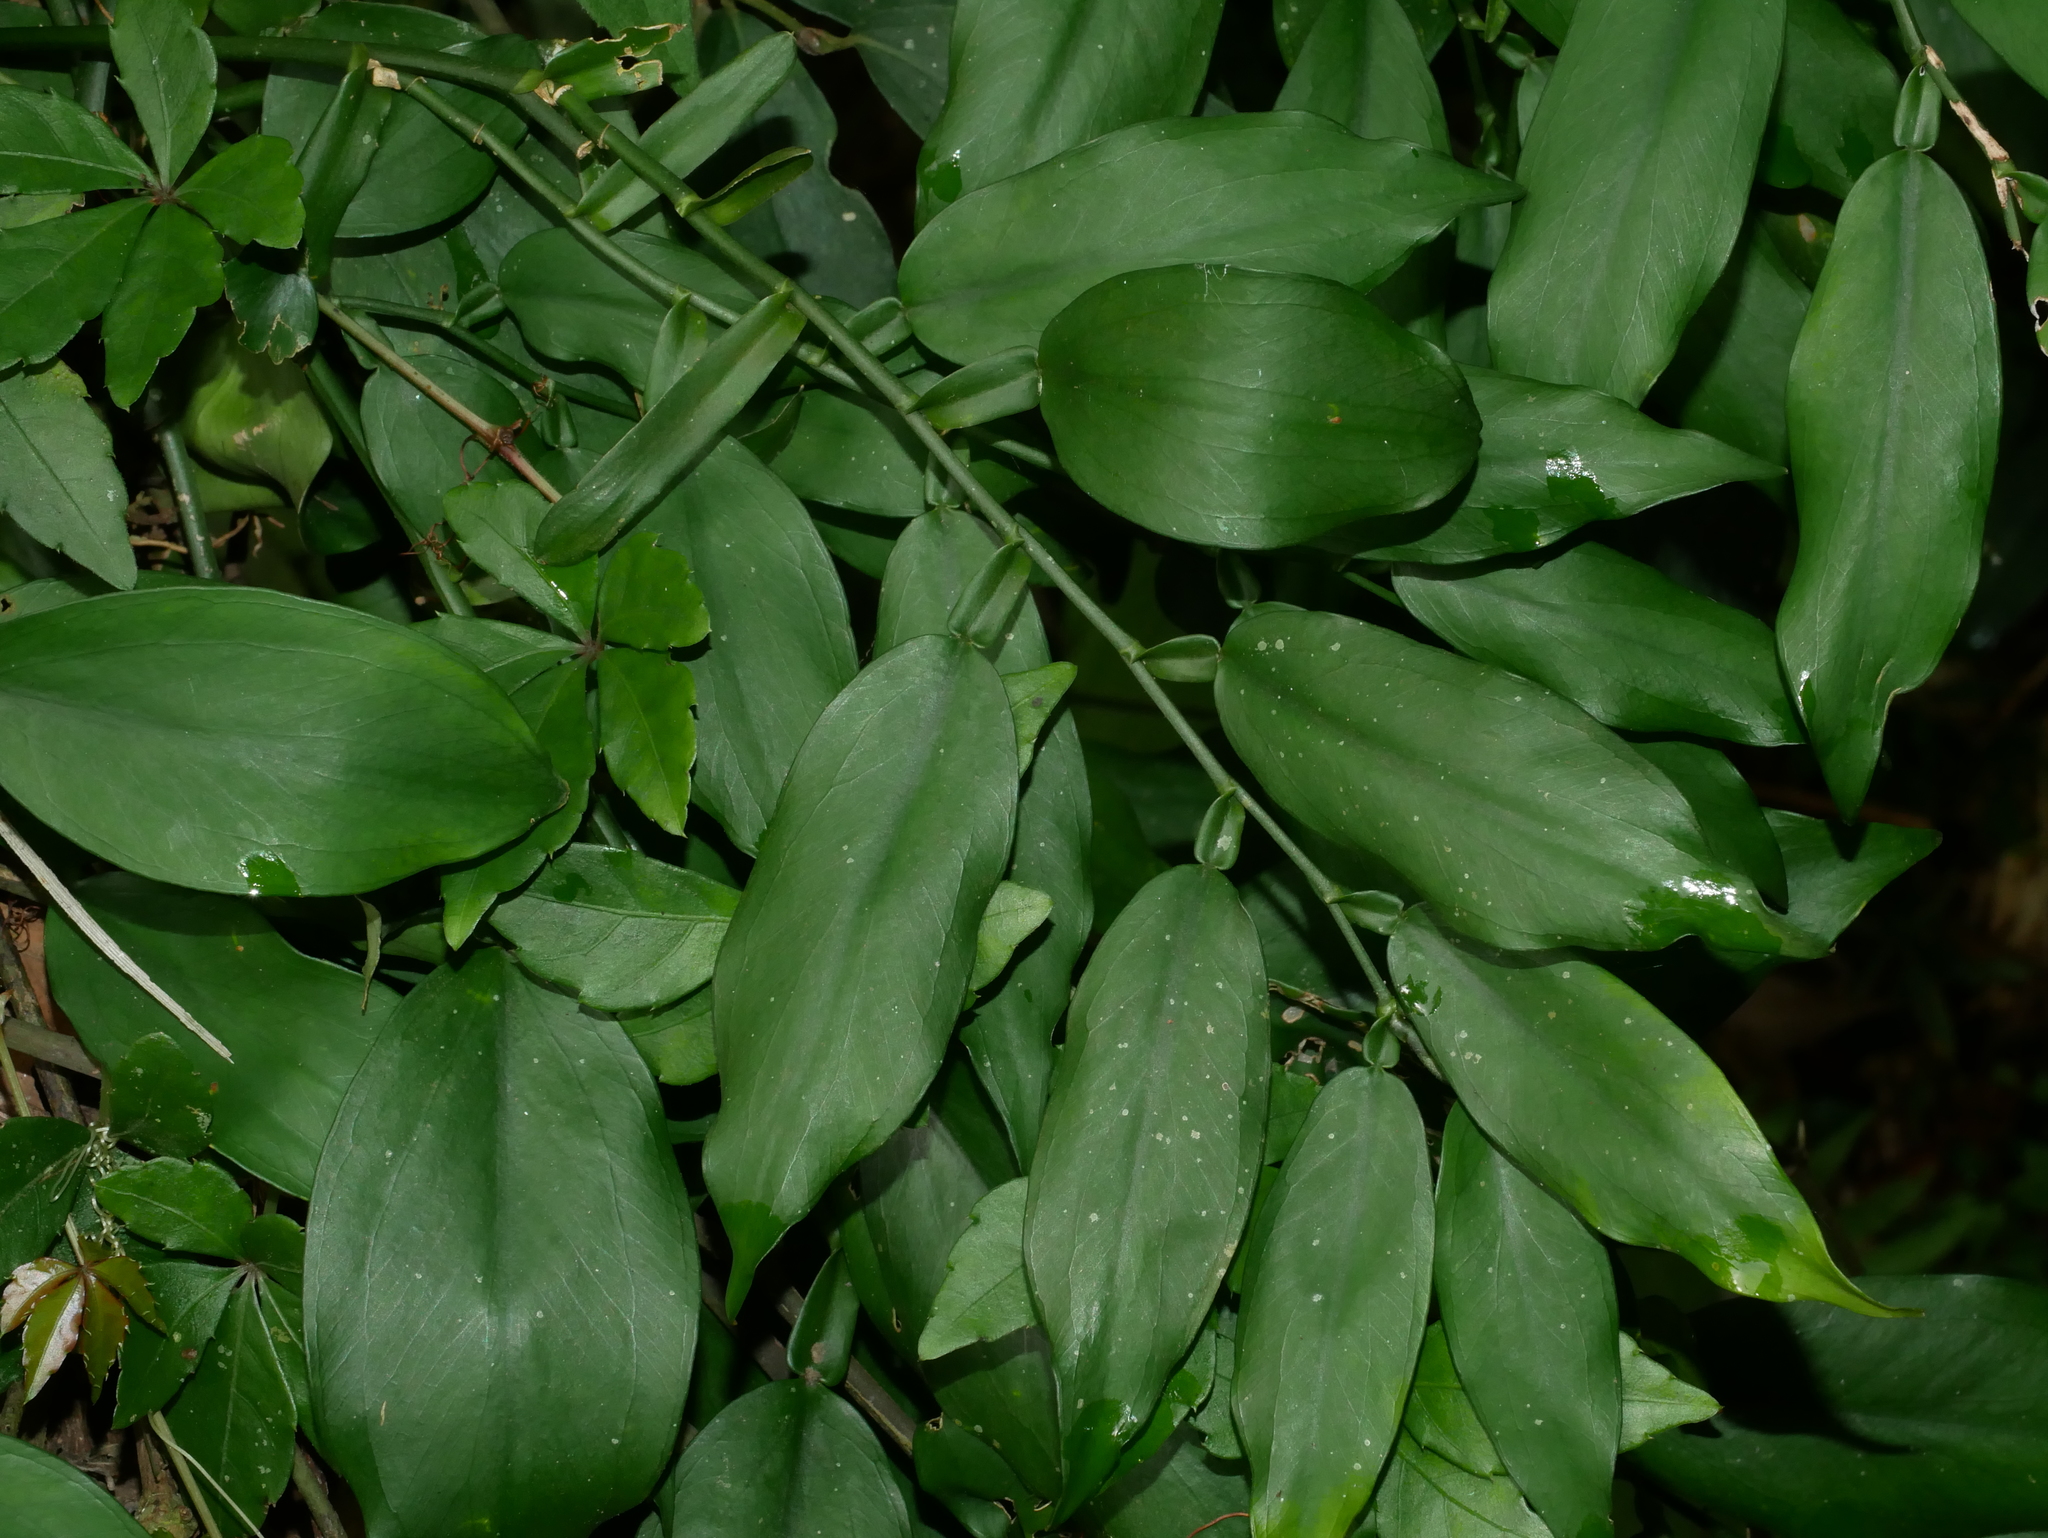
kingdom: Plantae
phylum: Tracheophyta
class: Liliopsida
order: Alismatales
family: Araceae
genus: Pothos
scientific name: Pothos chinensis
